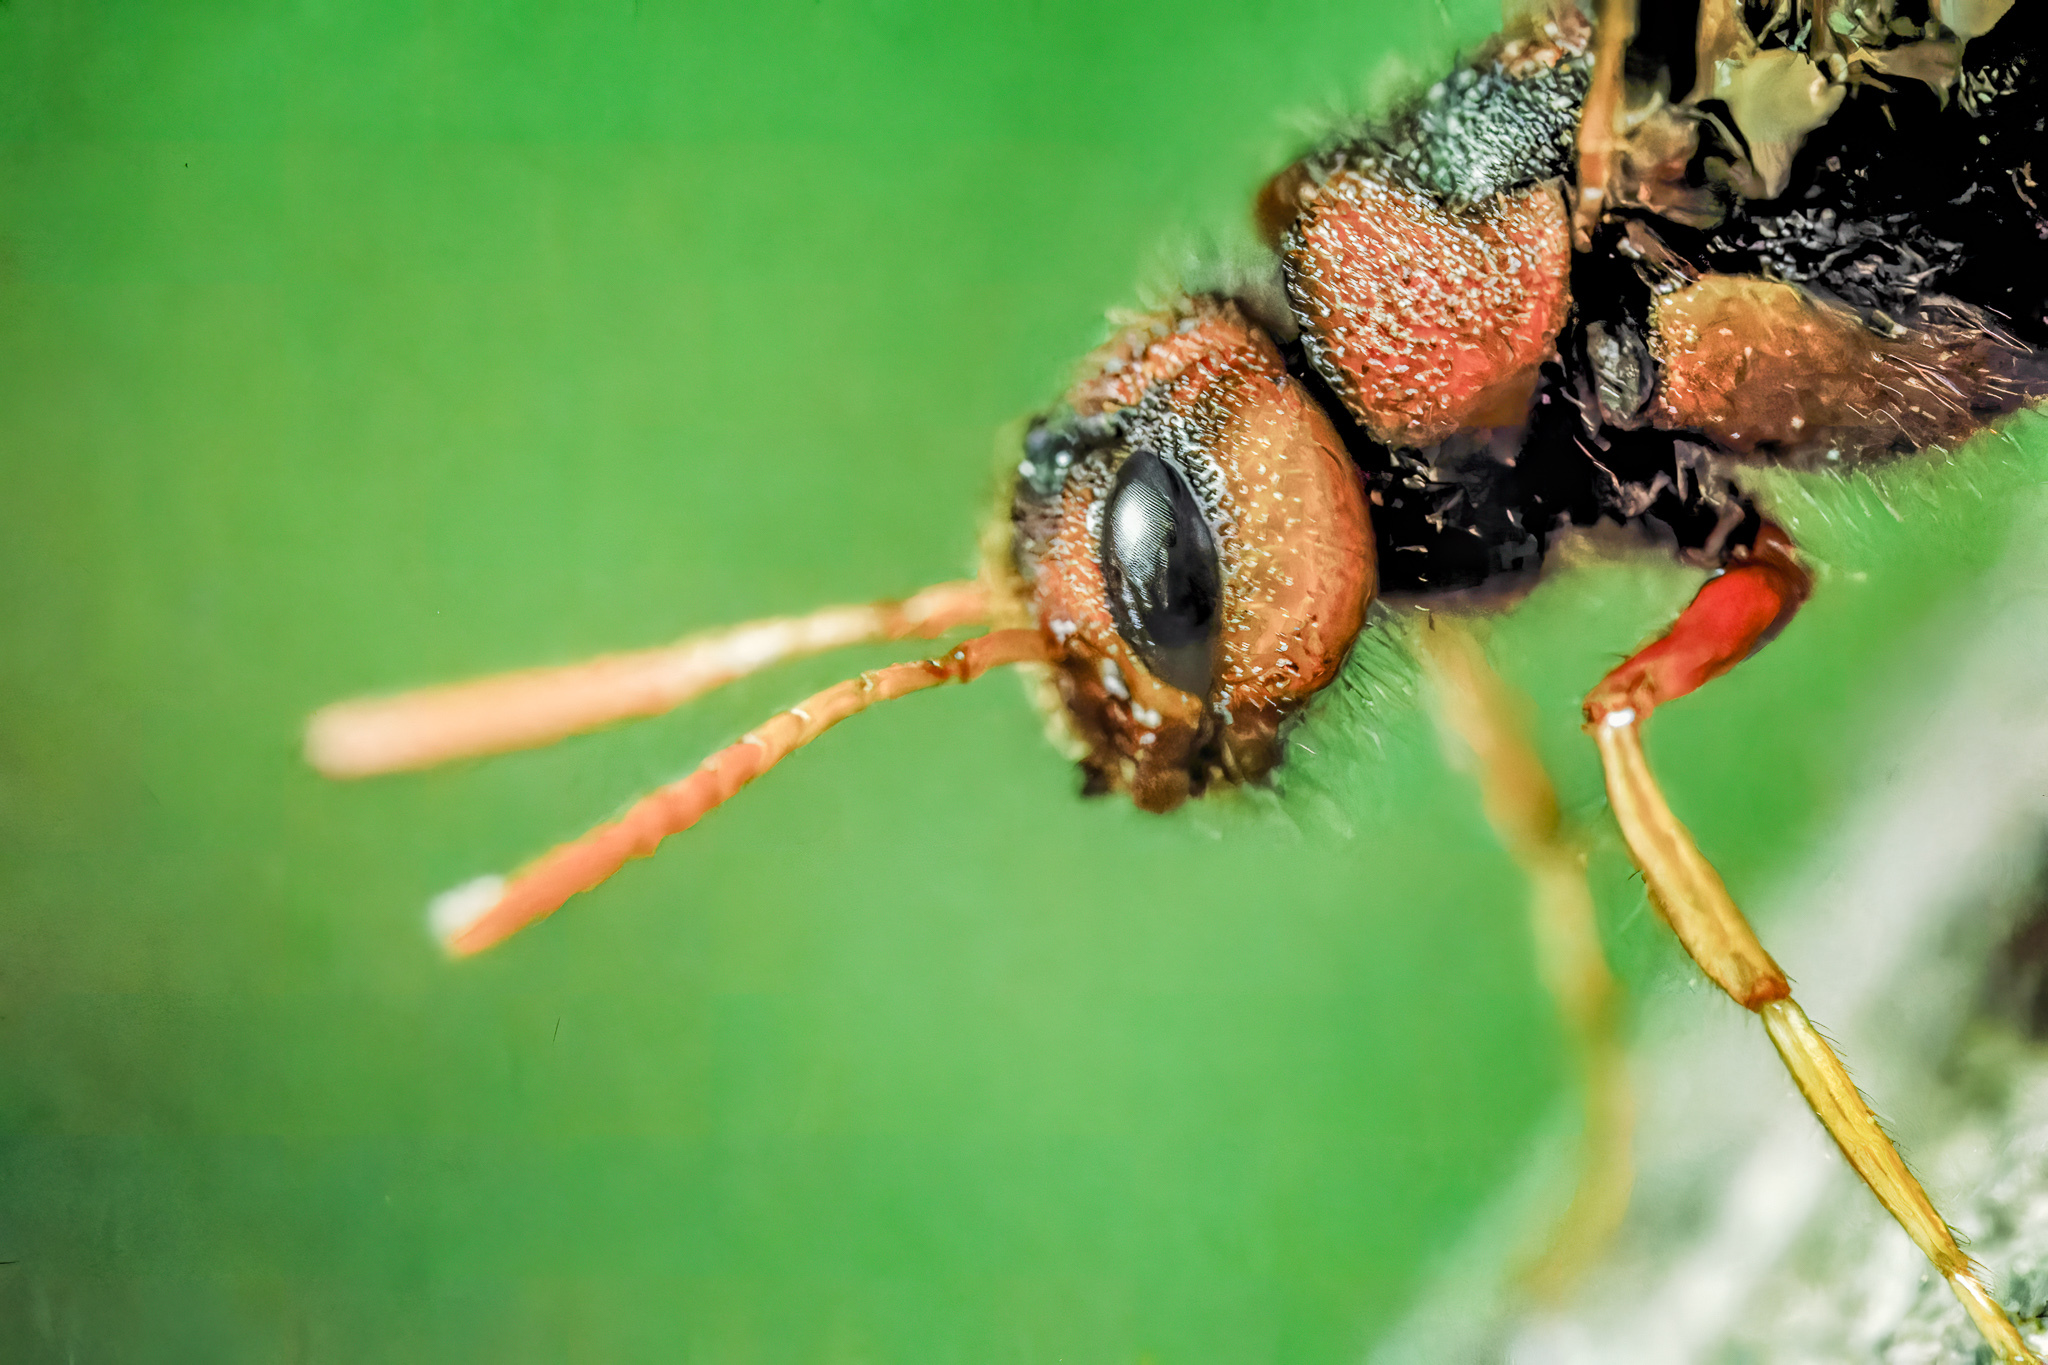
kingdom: Animalia
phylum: Arthropoda
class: Insecta
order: Hymenoptera
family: Siricidae
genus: Tremex
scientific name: Tremex columba
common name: Wasp
